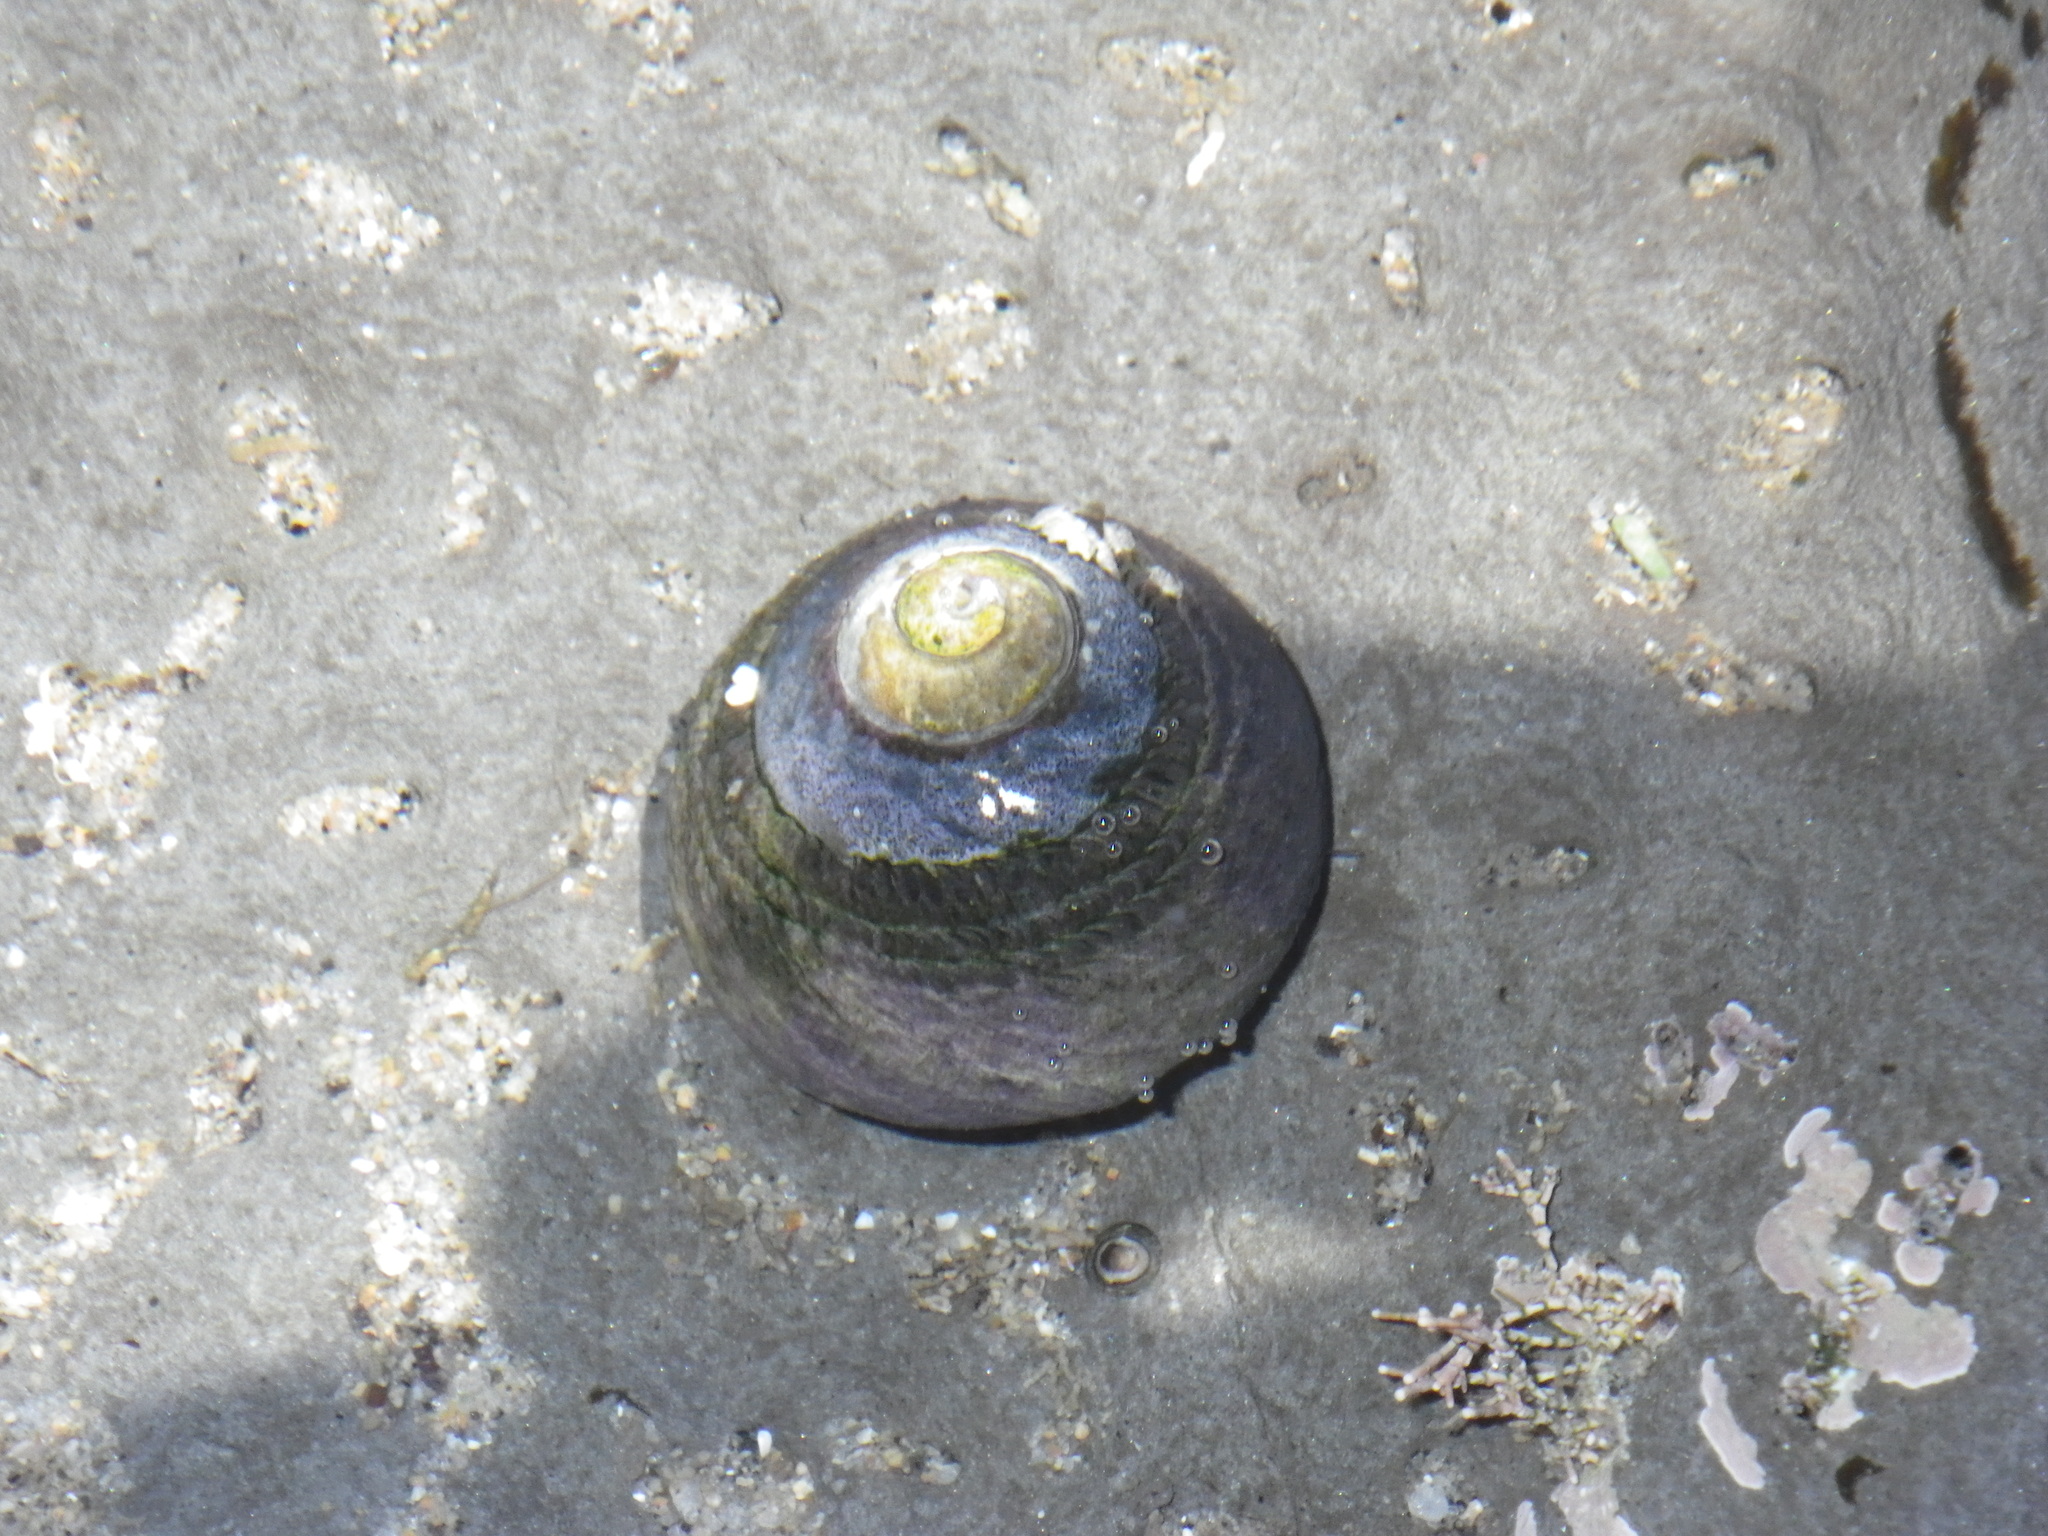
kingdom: Animalia
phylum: Mollusca
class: Gastropoda
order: Trochida
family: Tegulidae
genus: Tegula
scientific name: Tegula funebralis
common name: Black tegula
